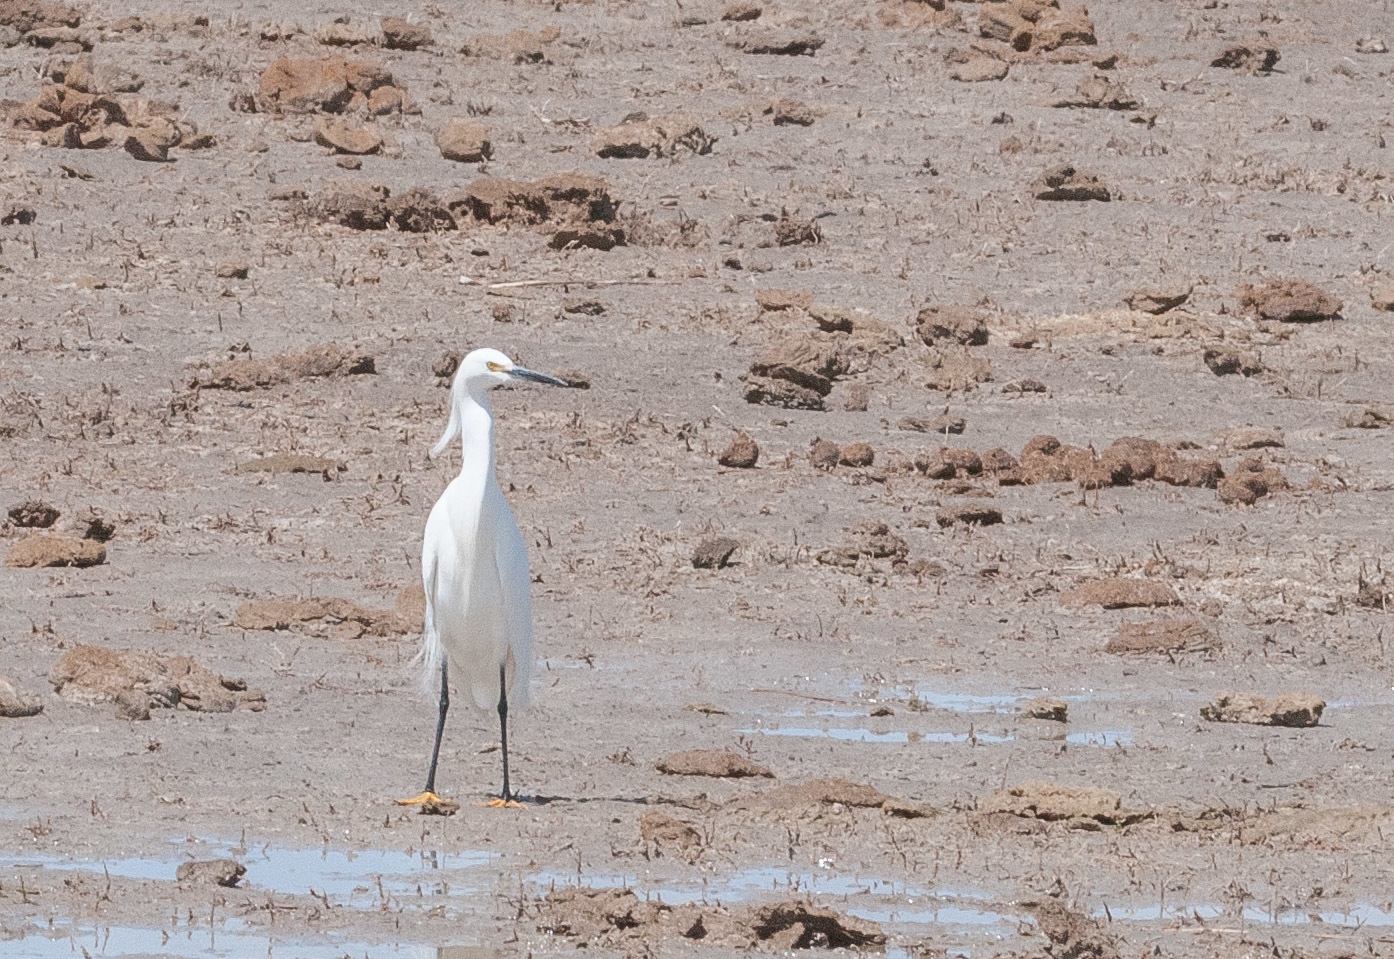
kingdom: Animalia
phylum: Chordata
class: Aves
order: Pelecaniformes
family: Ardeidae
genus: Egretta
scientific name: Egretta thula
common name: Snowy egret
